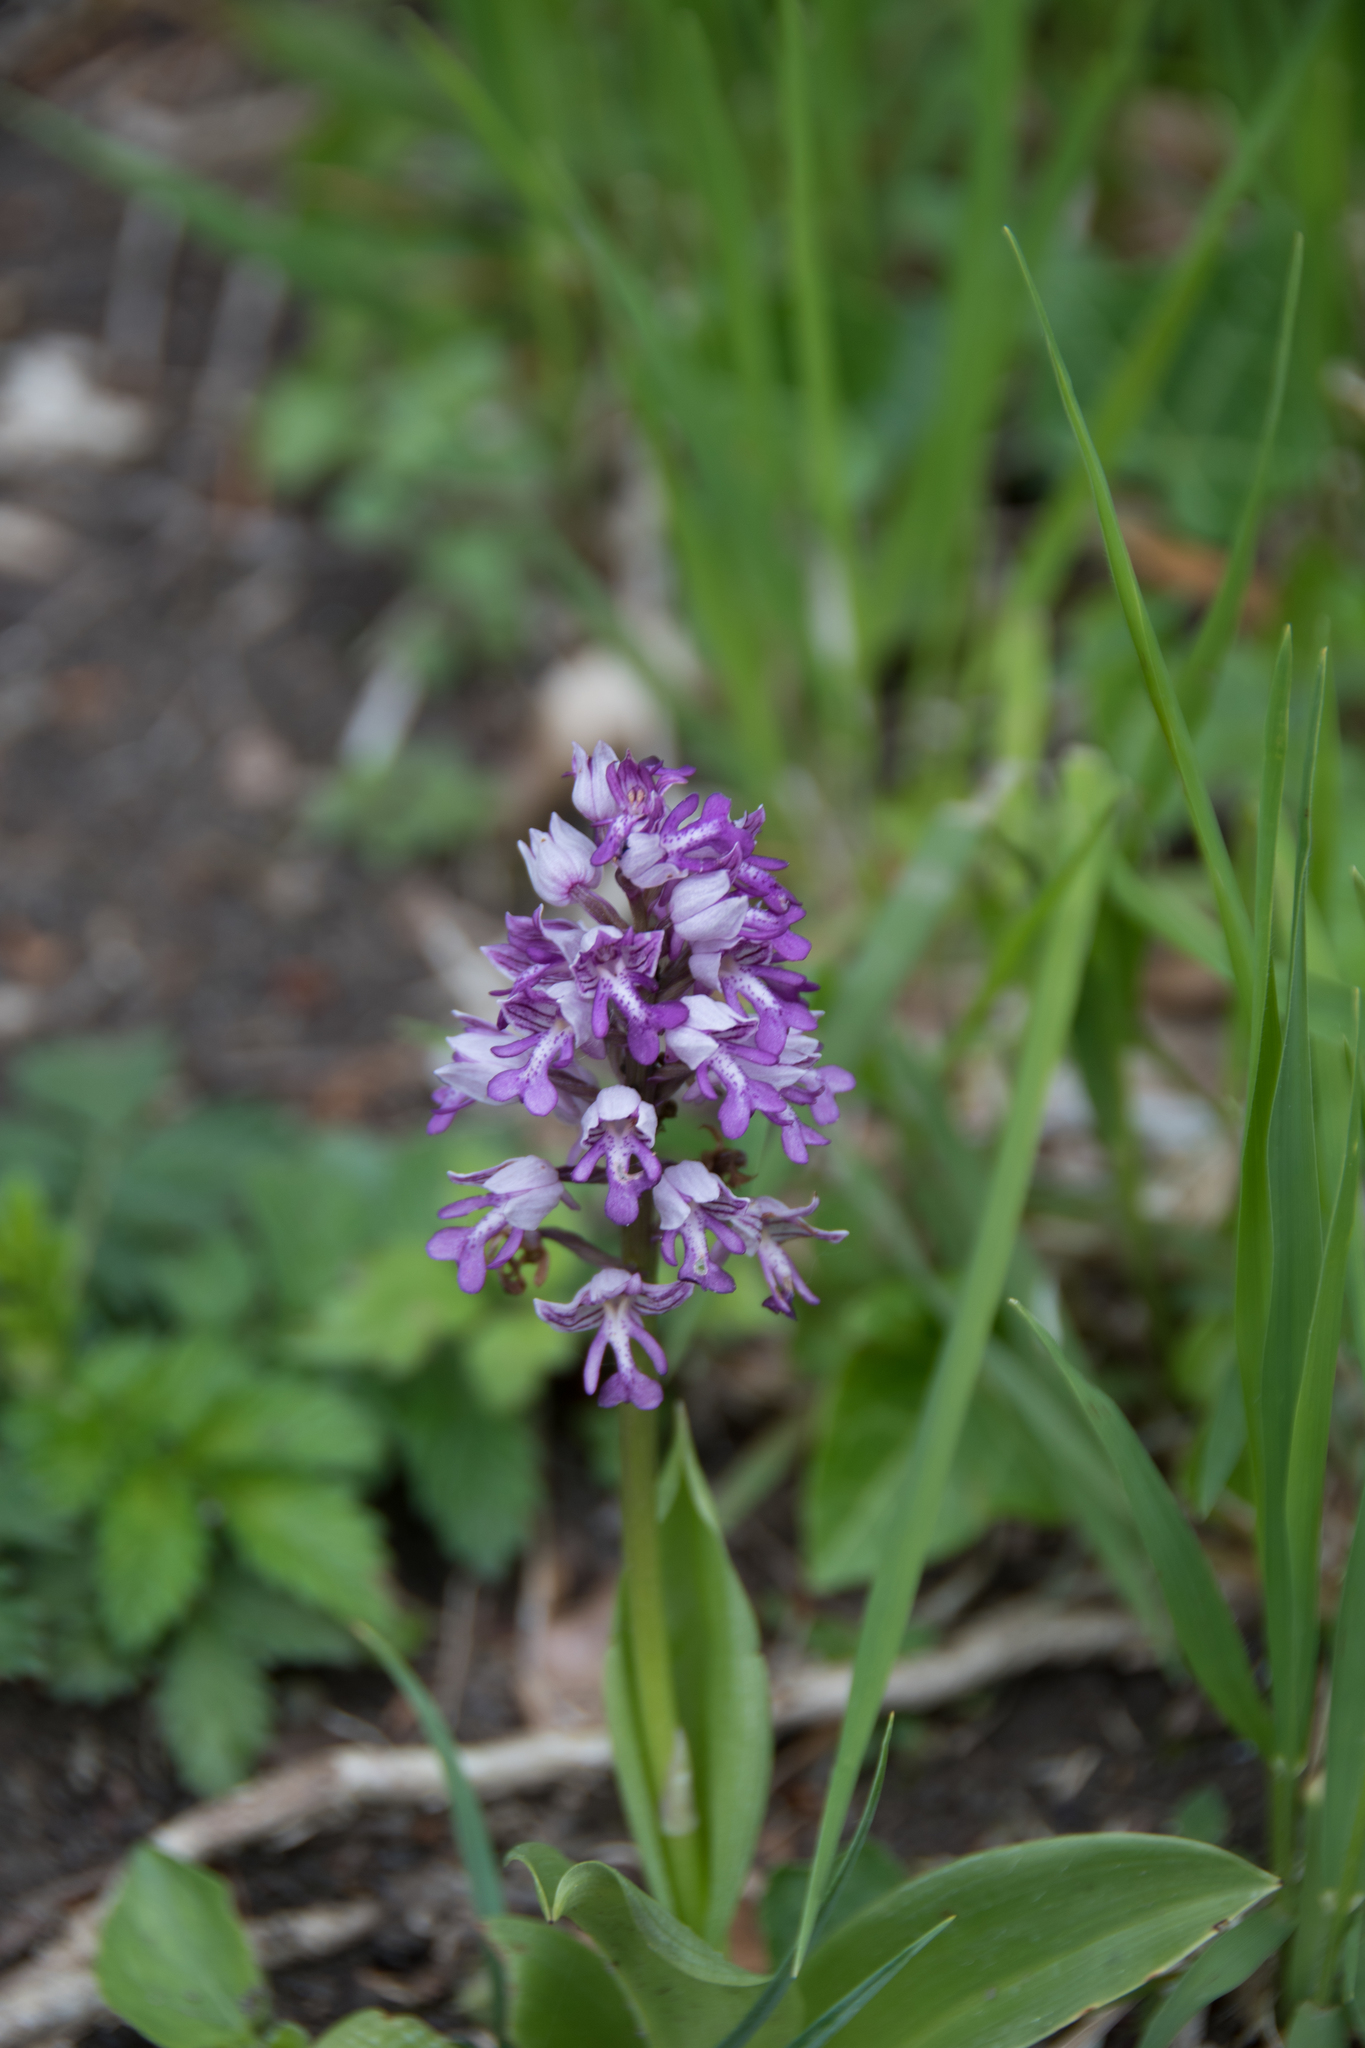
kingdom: Plantae
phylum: Tracheophyta
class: Liliopsida
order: Asparagales
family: Orchidaceae
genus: Orchis
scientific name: Orchis militaris
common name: Military orchid
